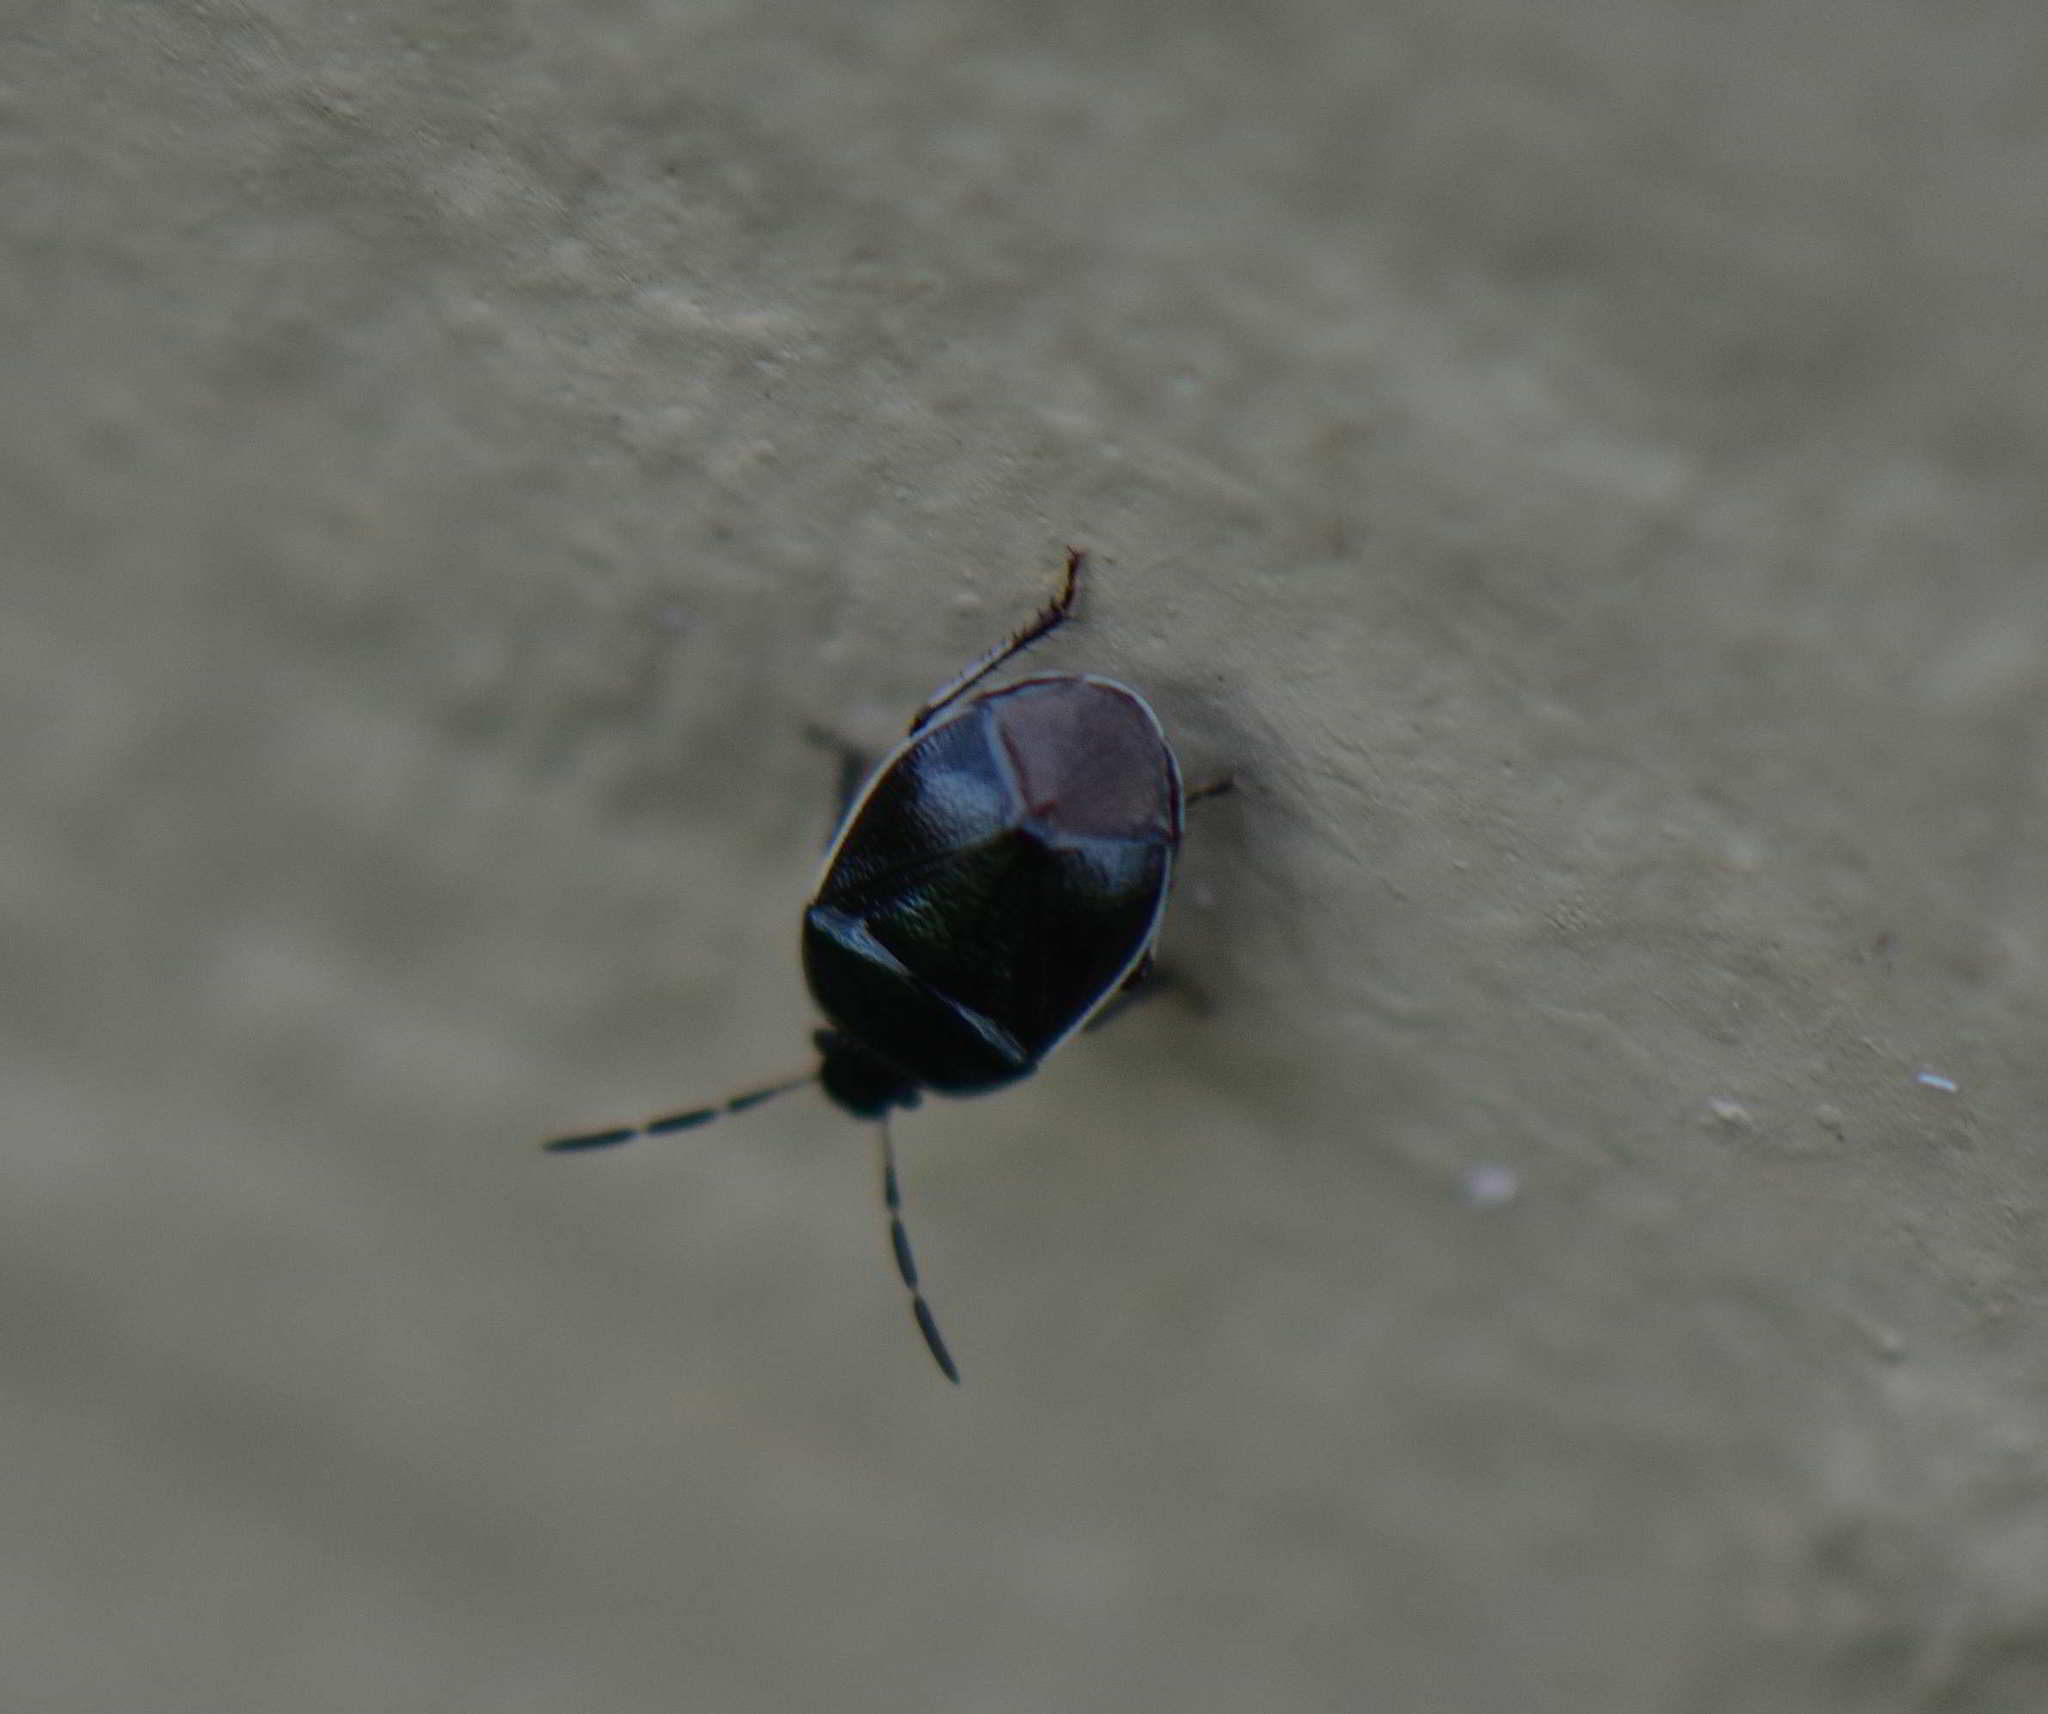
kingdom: Animalia
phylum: Arthropoda
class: Insecta
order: Hemiptera
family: Cydnidae
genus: Sehirus
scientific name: Sehirus cinctus
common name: White-margined burrower bug
